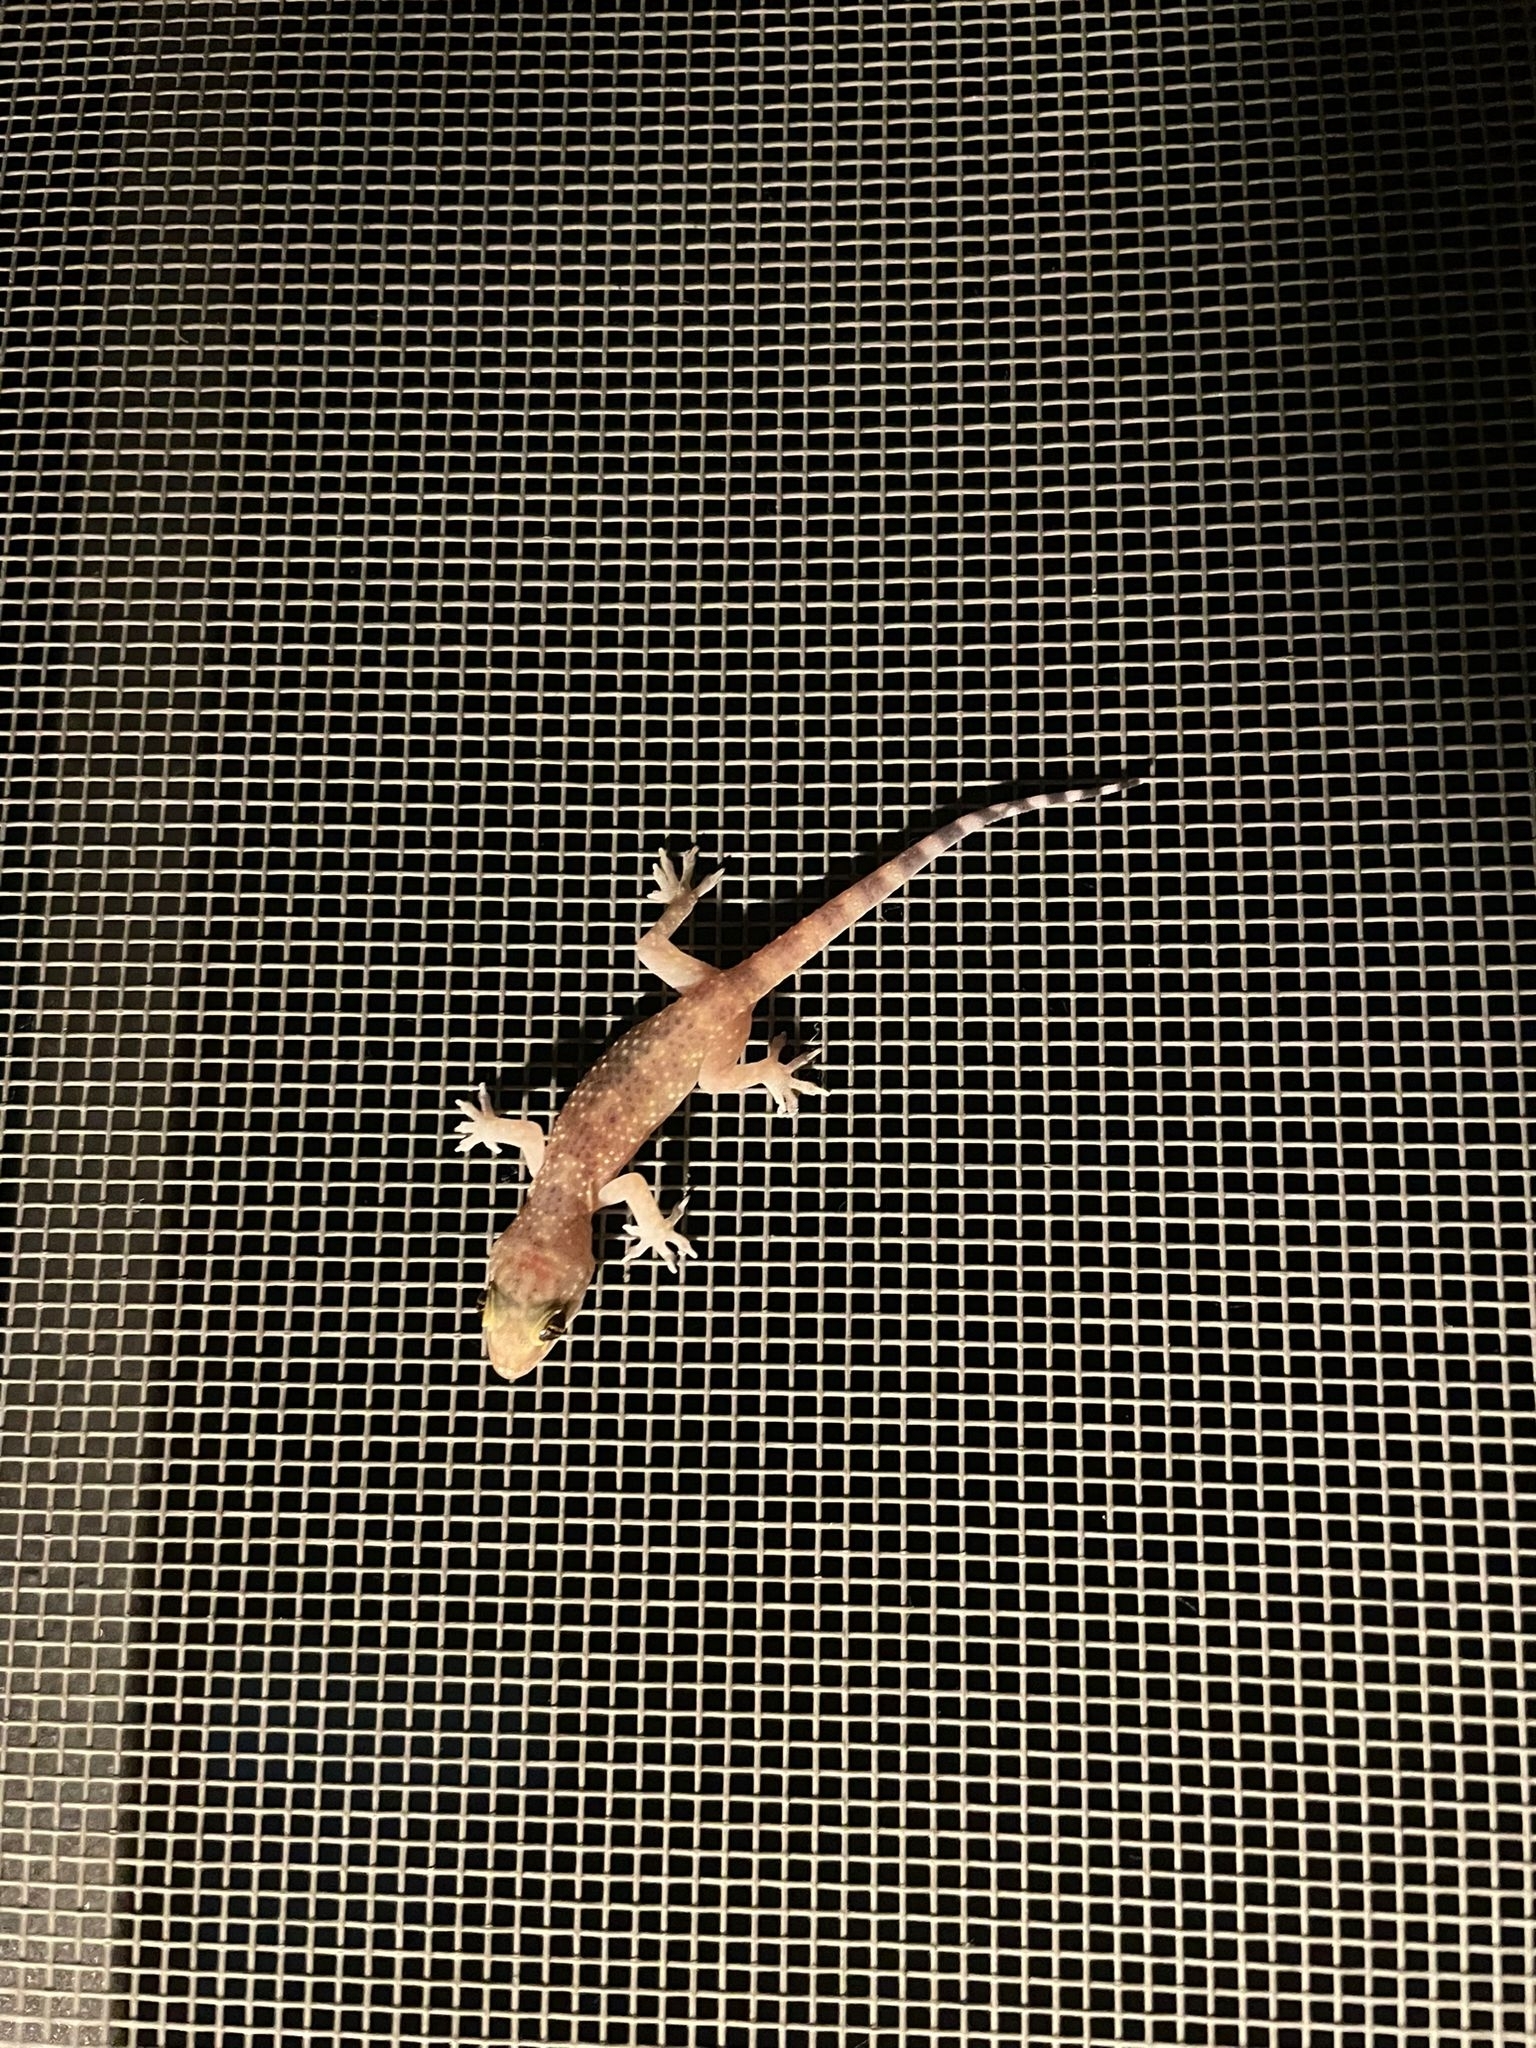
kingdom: Animalia
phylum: Chordata
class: Squamata
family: Gekkonidae
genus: Hemidactylus
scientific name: Hemidactylus turcicus
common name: Turkish gecko
